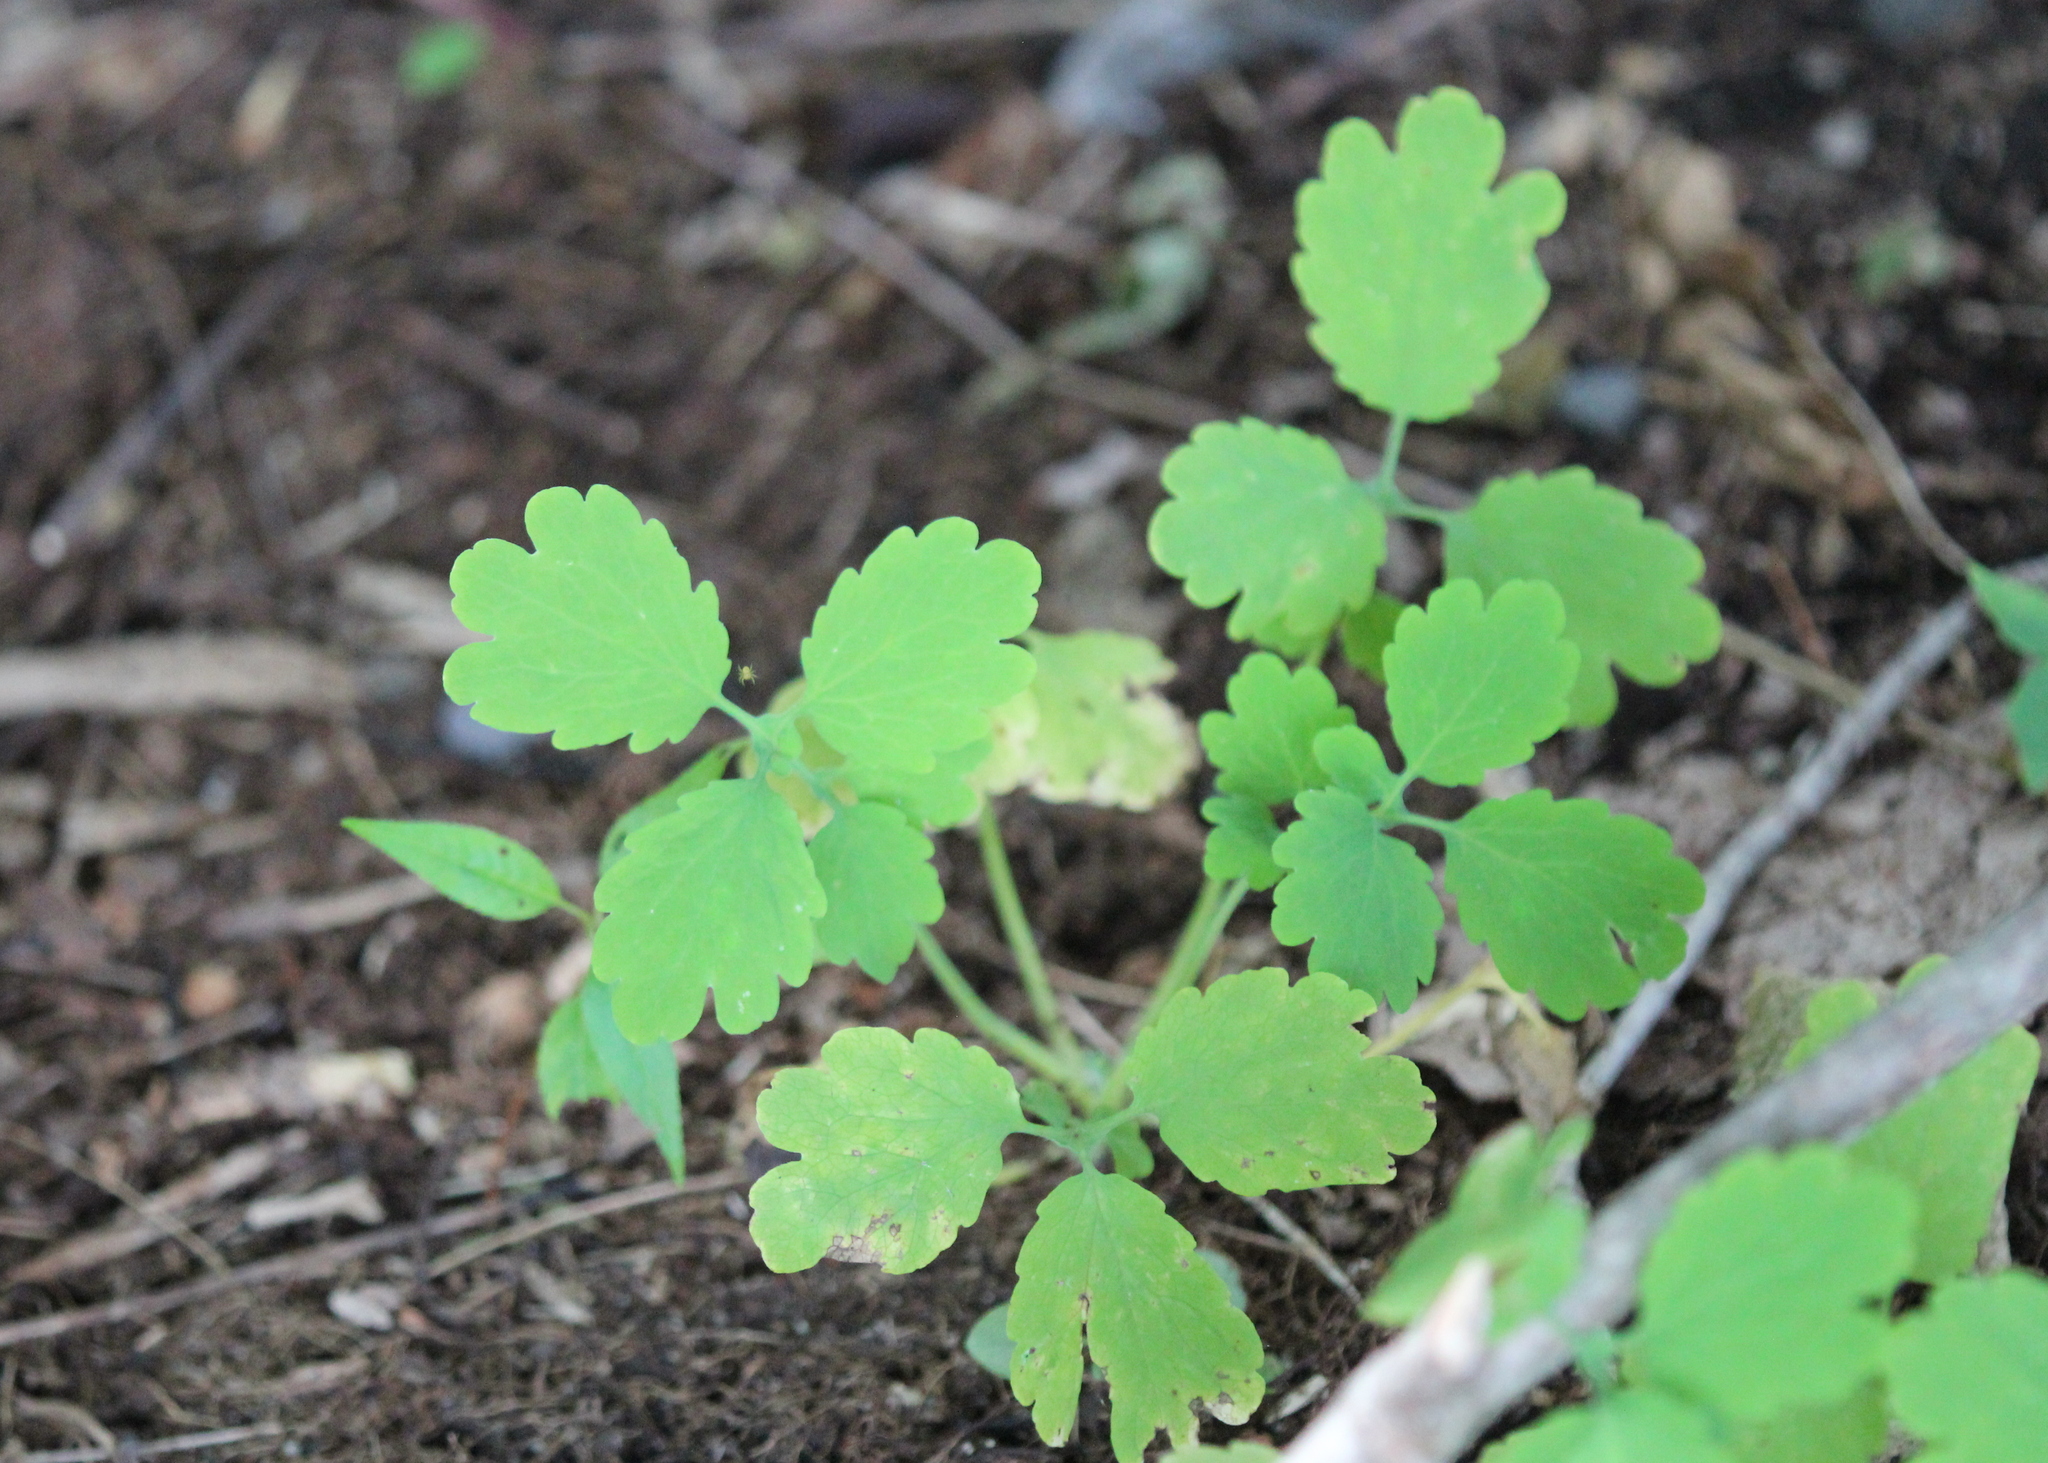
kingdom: Plantae
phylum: Tracheophyta
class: Magnoliopsida
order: Ranunculales
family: Papaveraceae
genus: Chelidonium
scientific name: Chelidonium majus
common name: Greater celandine
